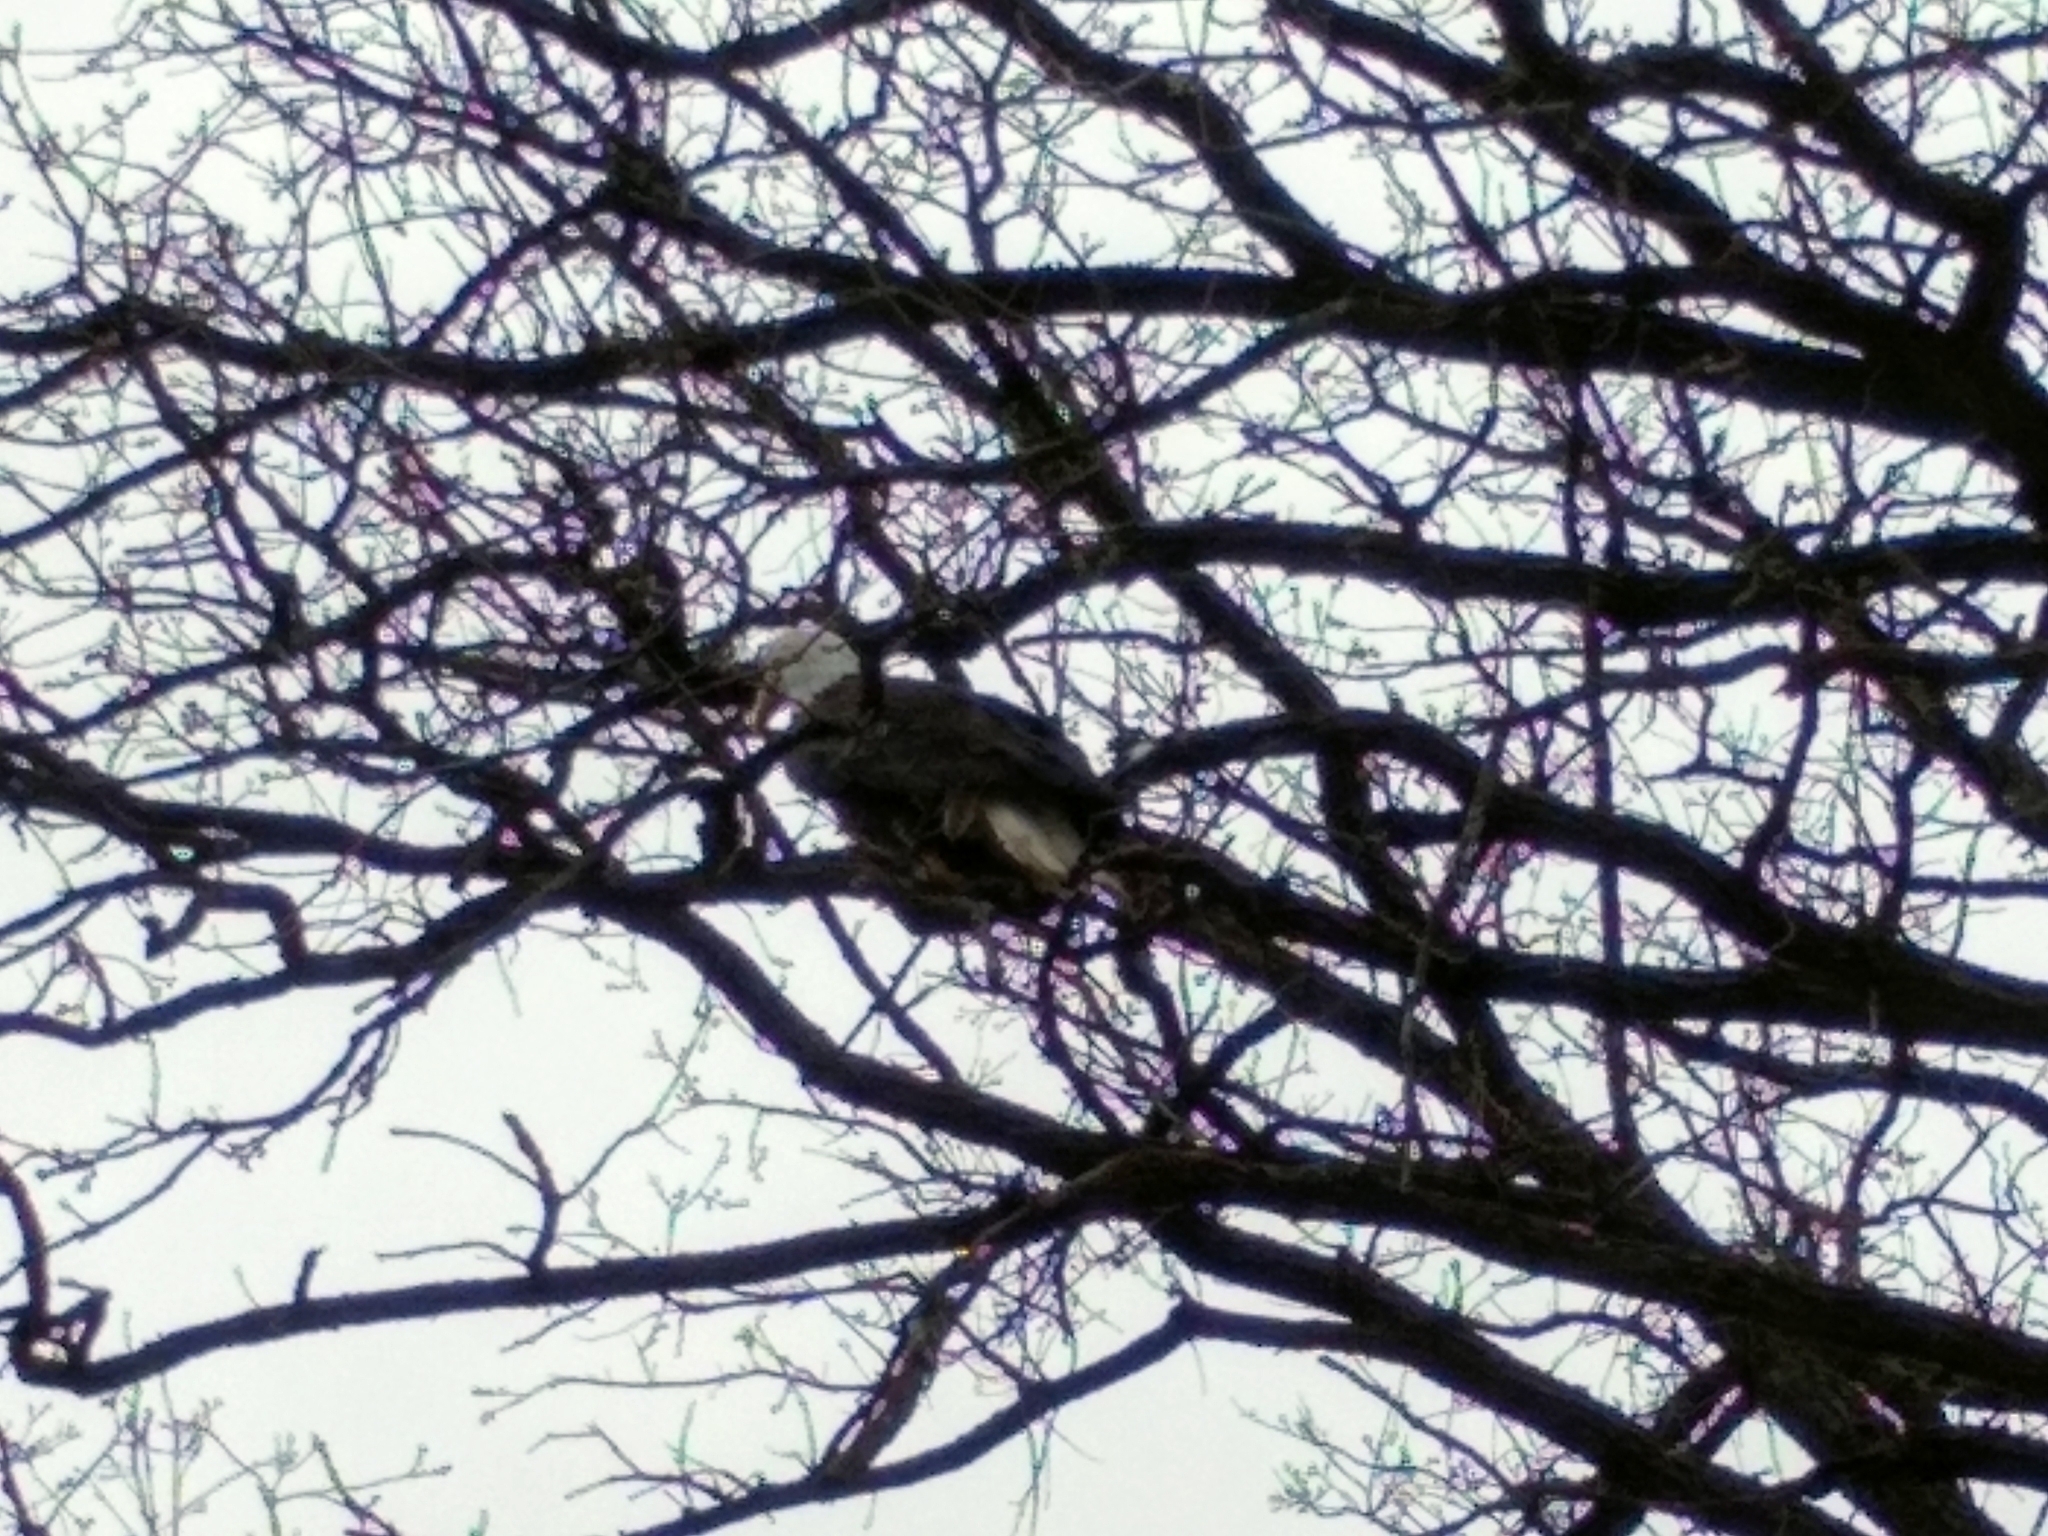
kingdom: Animalia
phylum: Chordata
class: Aves
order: Accipitriformes
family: Accipitridae
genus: Haliaeetus
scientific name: Haliaeetus leucocephalus
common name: Bald eagle
